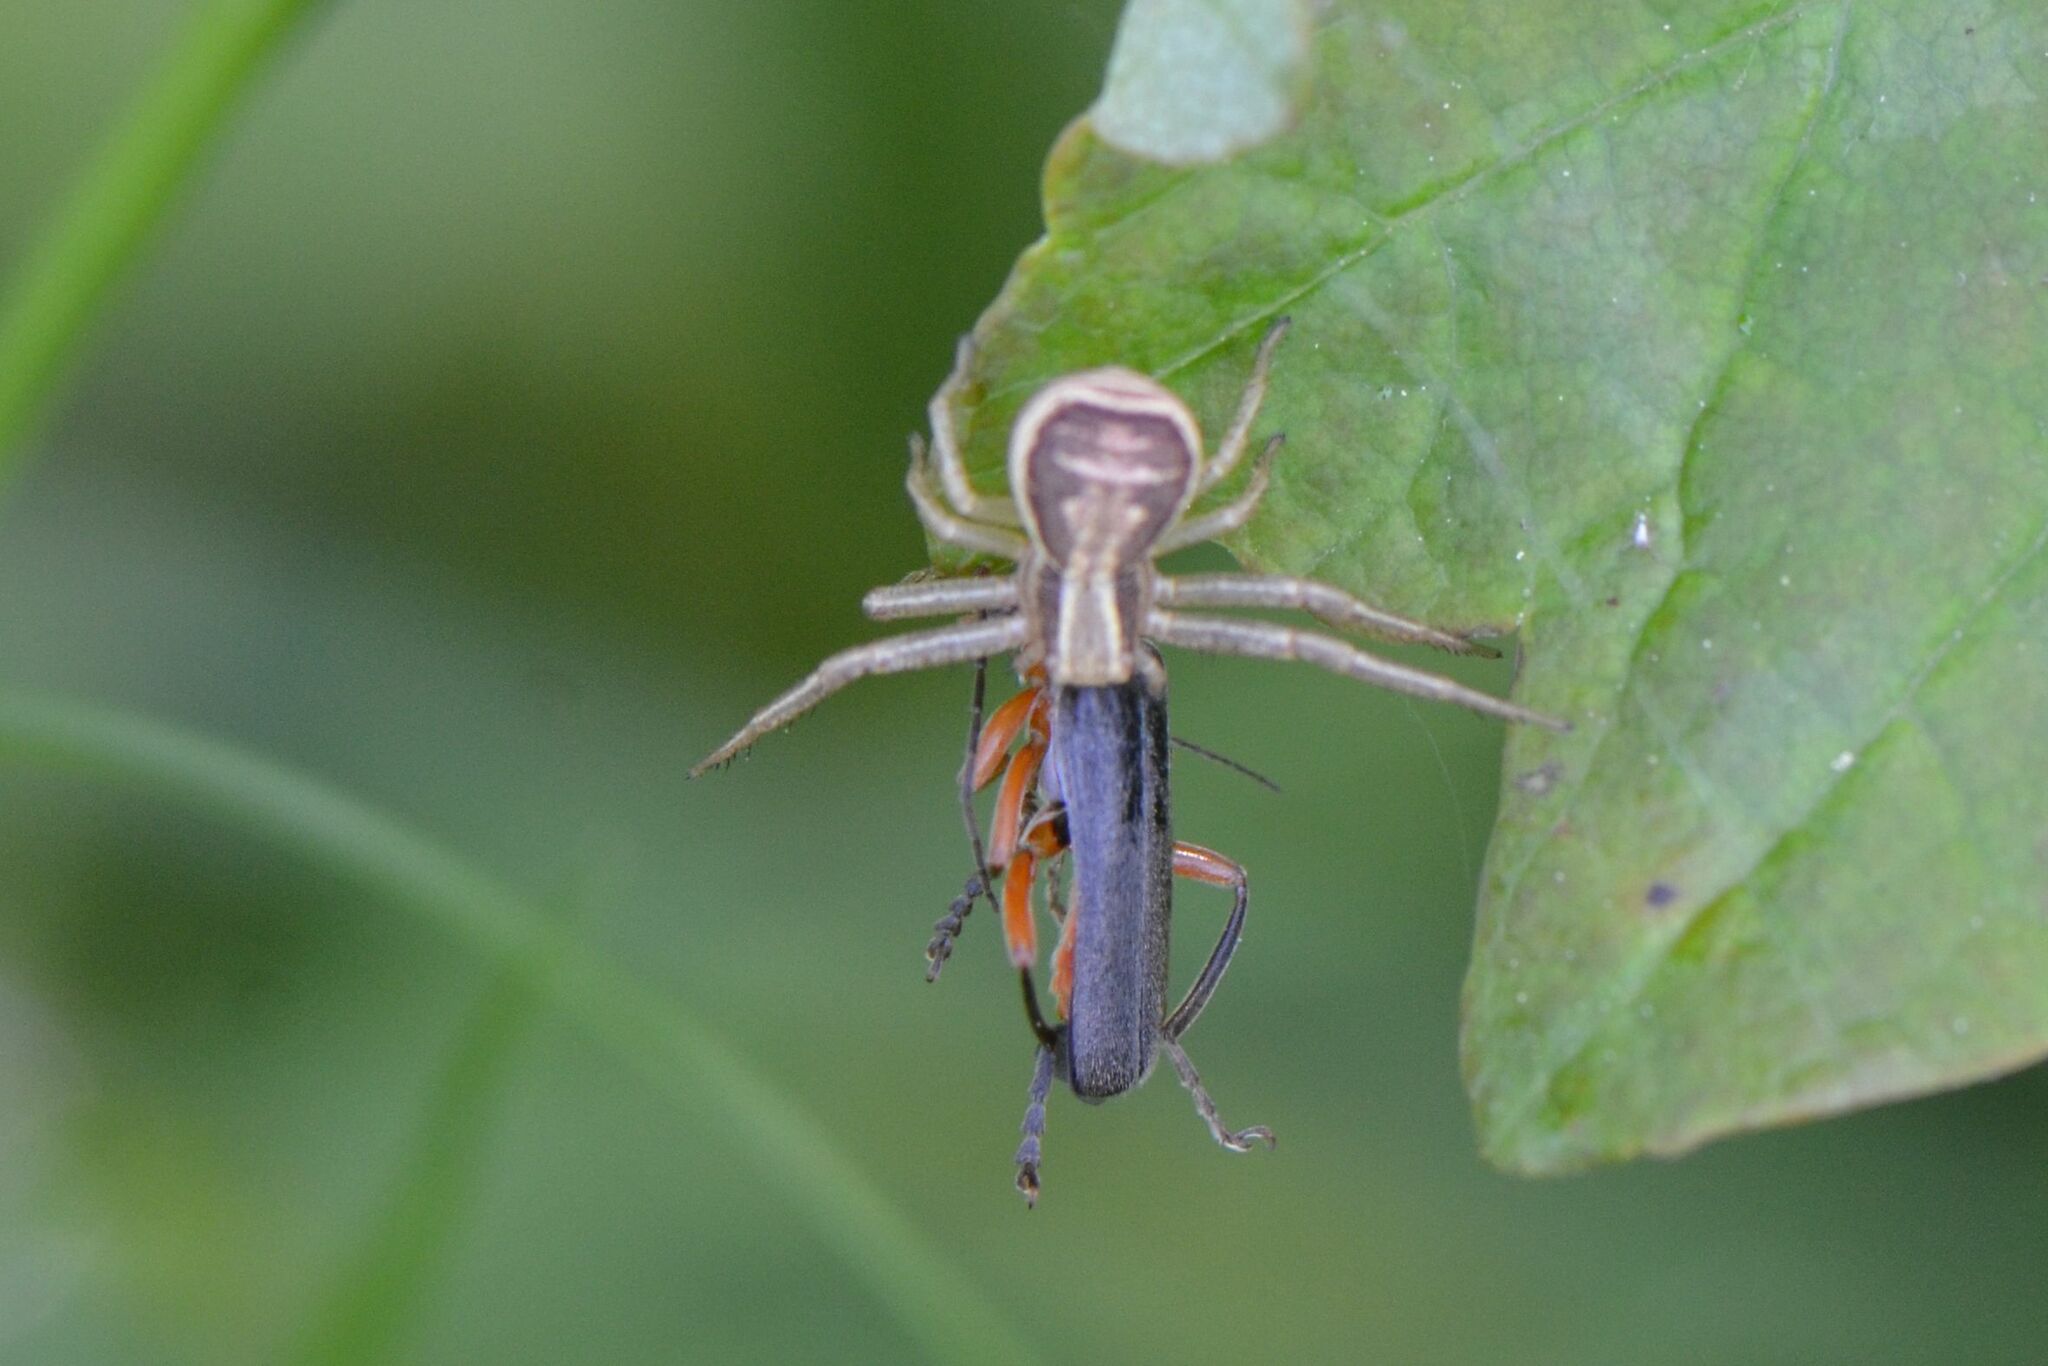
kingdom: Animalia
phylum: Arthropoda
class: Arachnida
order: Araneae
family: Thomisidae
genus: Xysticus
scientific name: Xysticus ulmi
